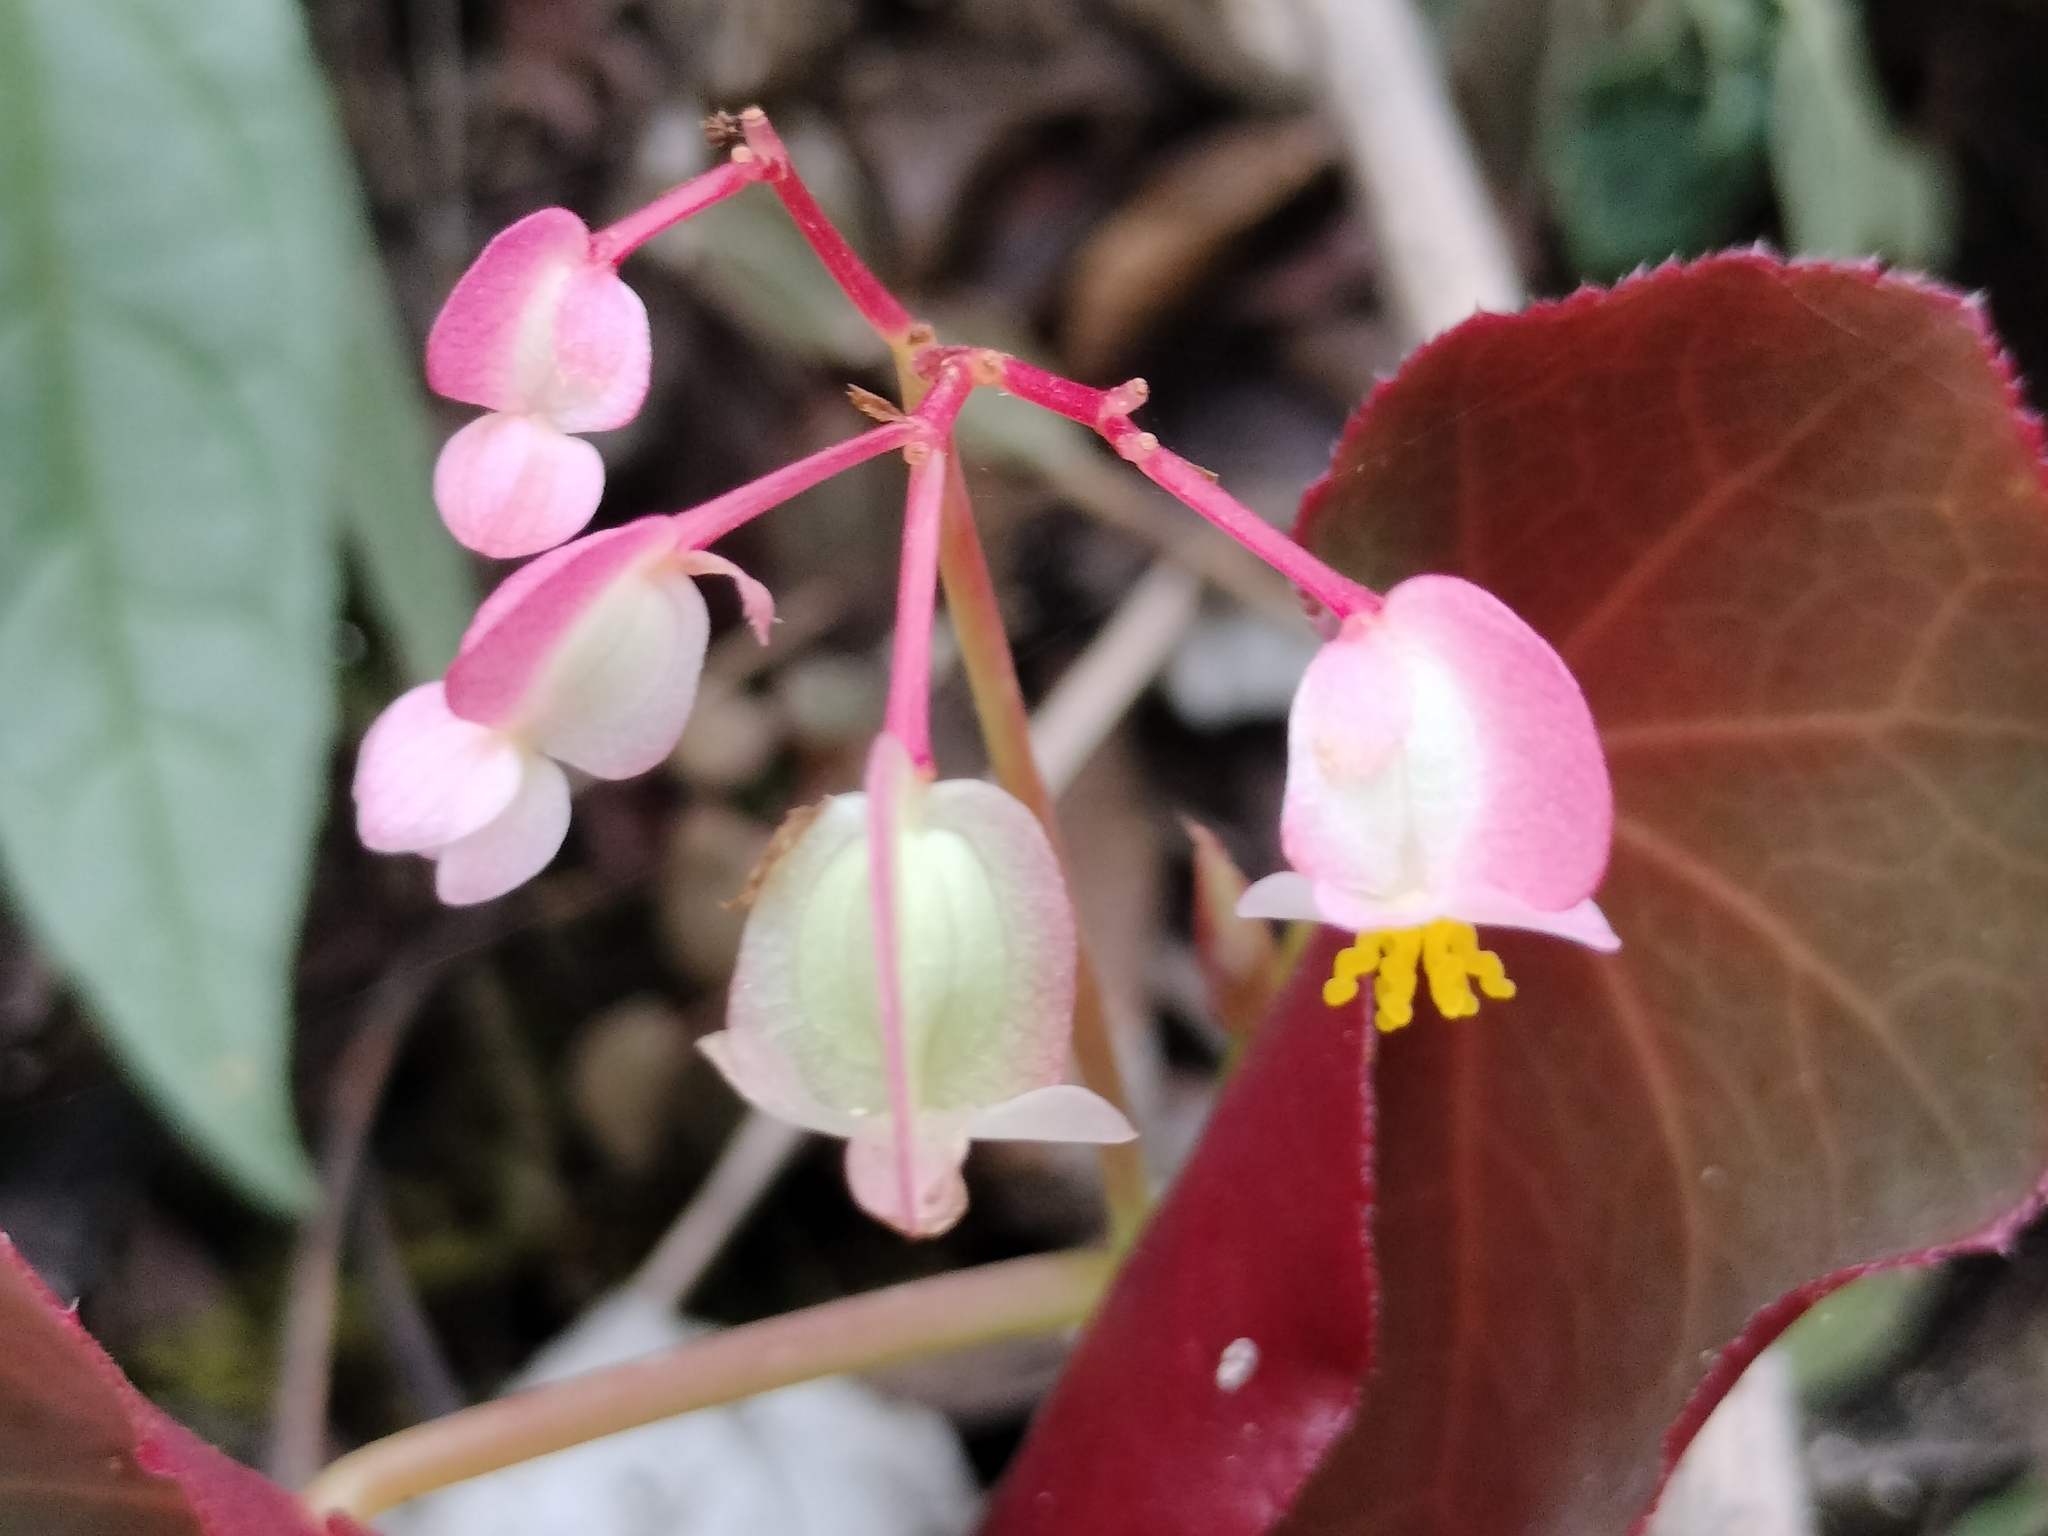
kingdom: Plantae
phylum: Tracheophyta
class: Magnoliopsida
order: Cucurbitales
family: Begoniaceae
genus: Begonia
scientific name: Begonia fissistyla
